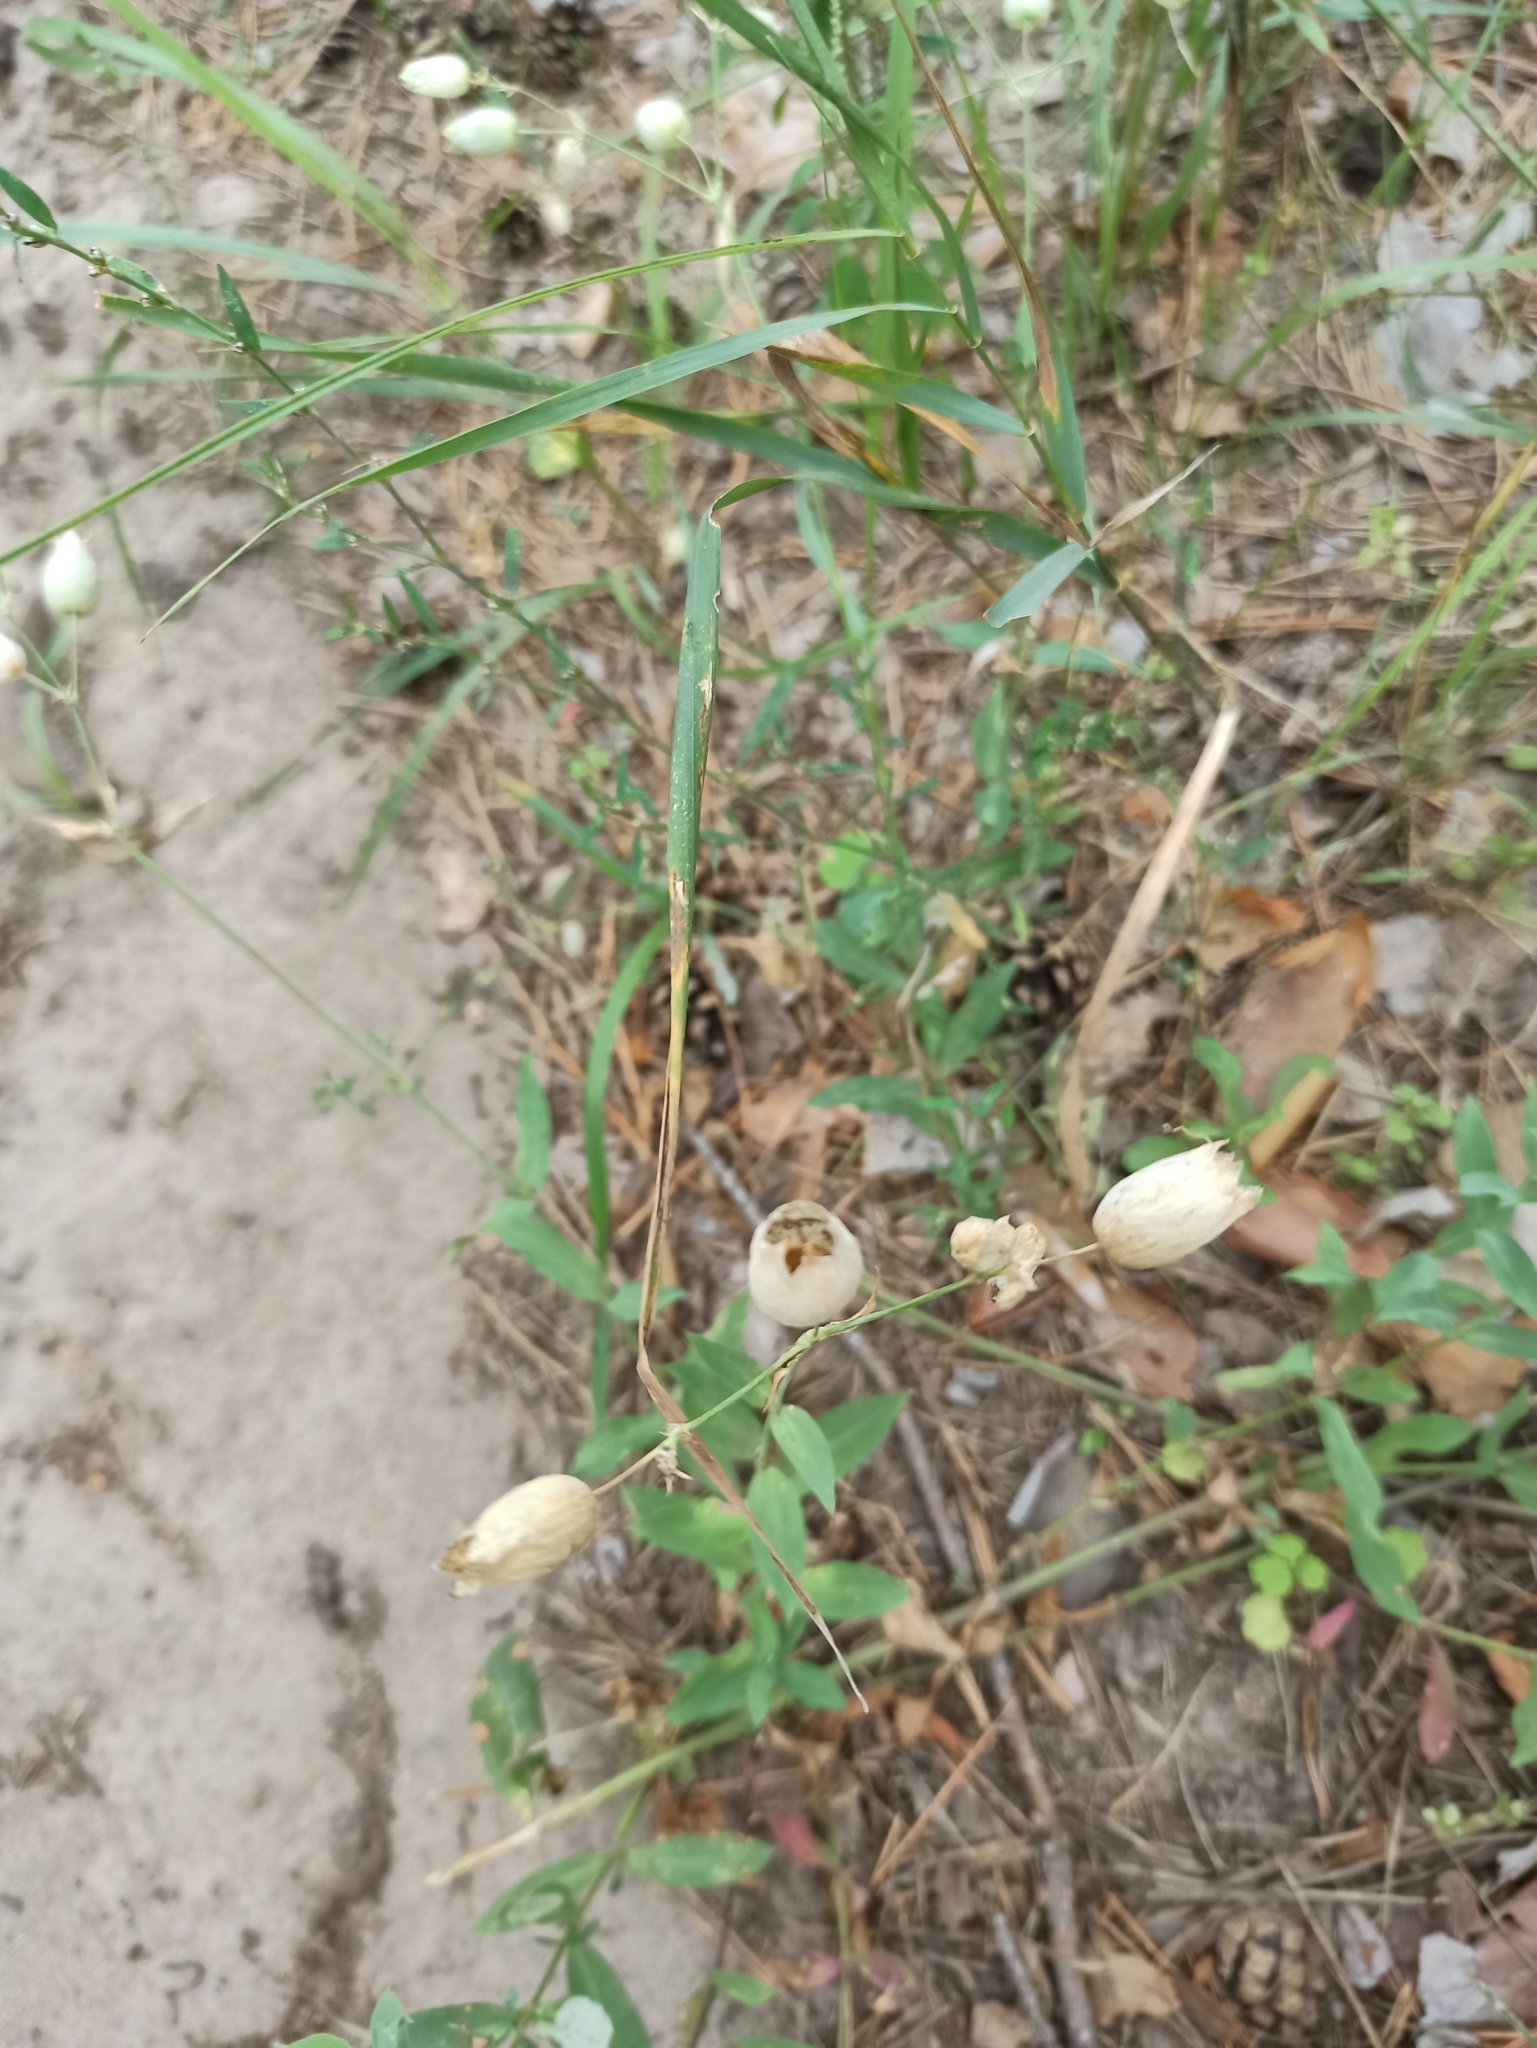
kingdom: Plantae
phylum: Tracheophyta
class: Magnoliopsida
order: Caryophyllales
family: Caryophyllaceae
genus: Silene
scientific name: Silene vulgaris
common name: Bladder campion
